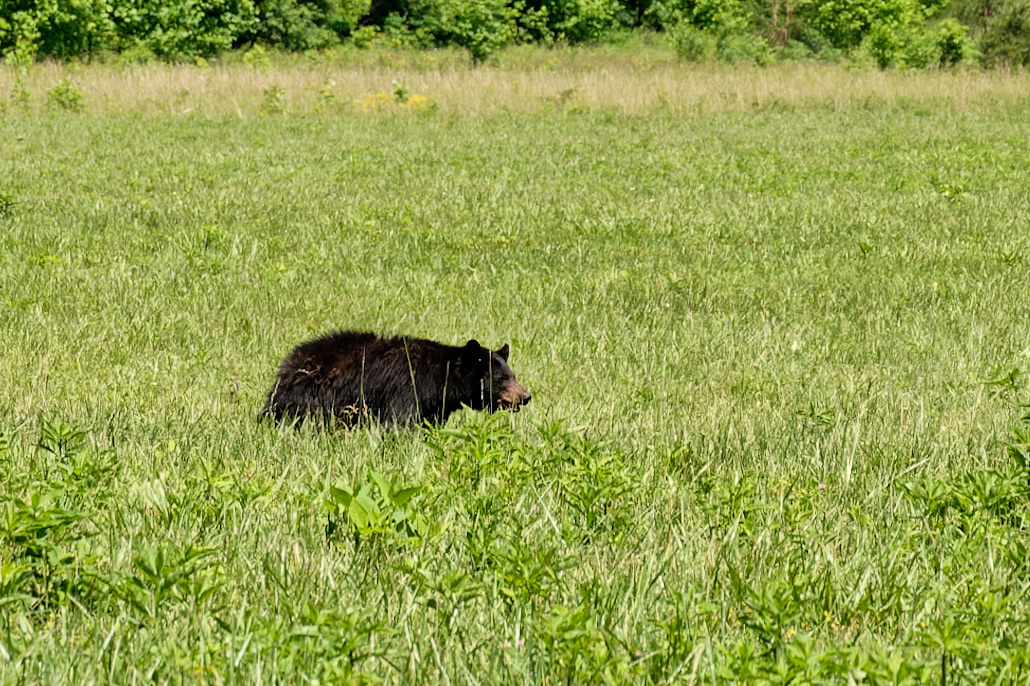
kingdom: Animalia
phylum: Chordata
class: Mammalia
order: Carnivora
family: Ursidae
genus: Ursus
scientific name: Ursus americanus
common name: American black bear
